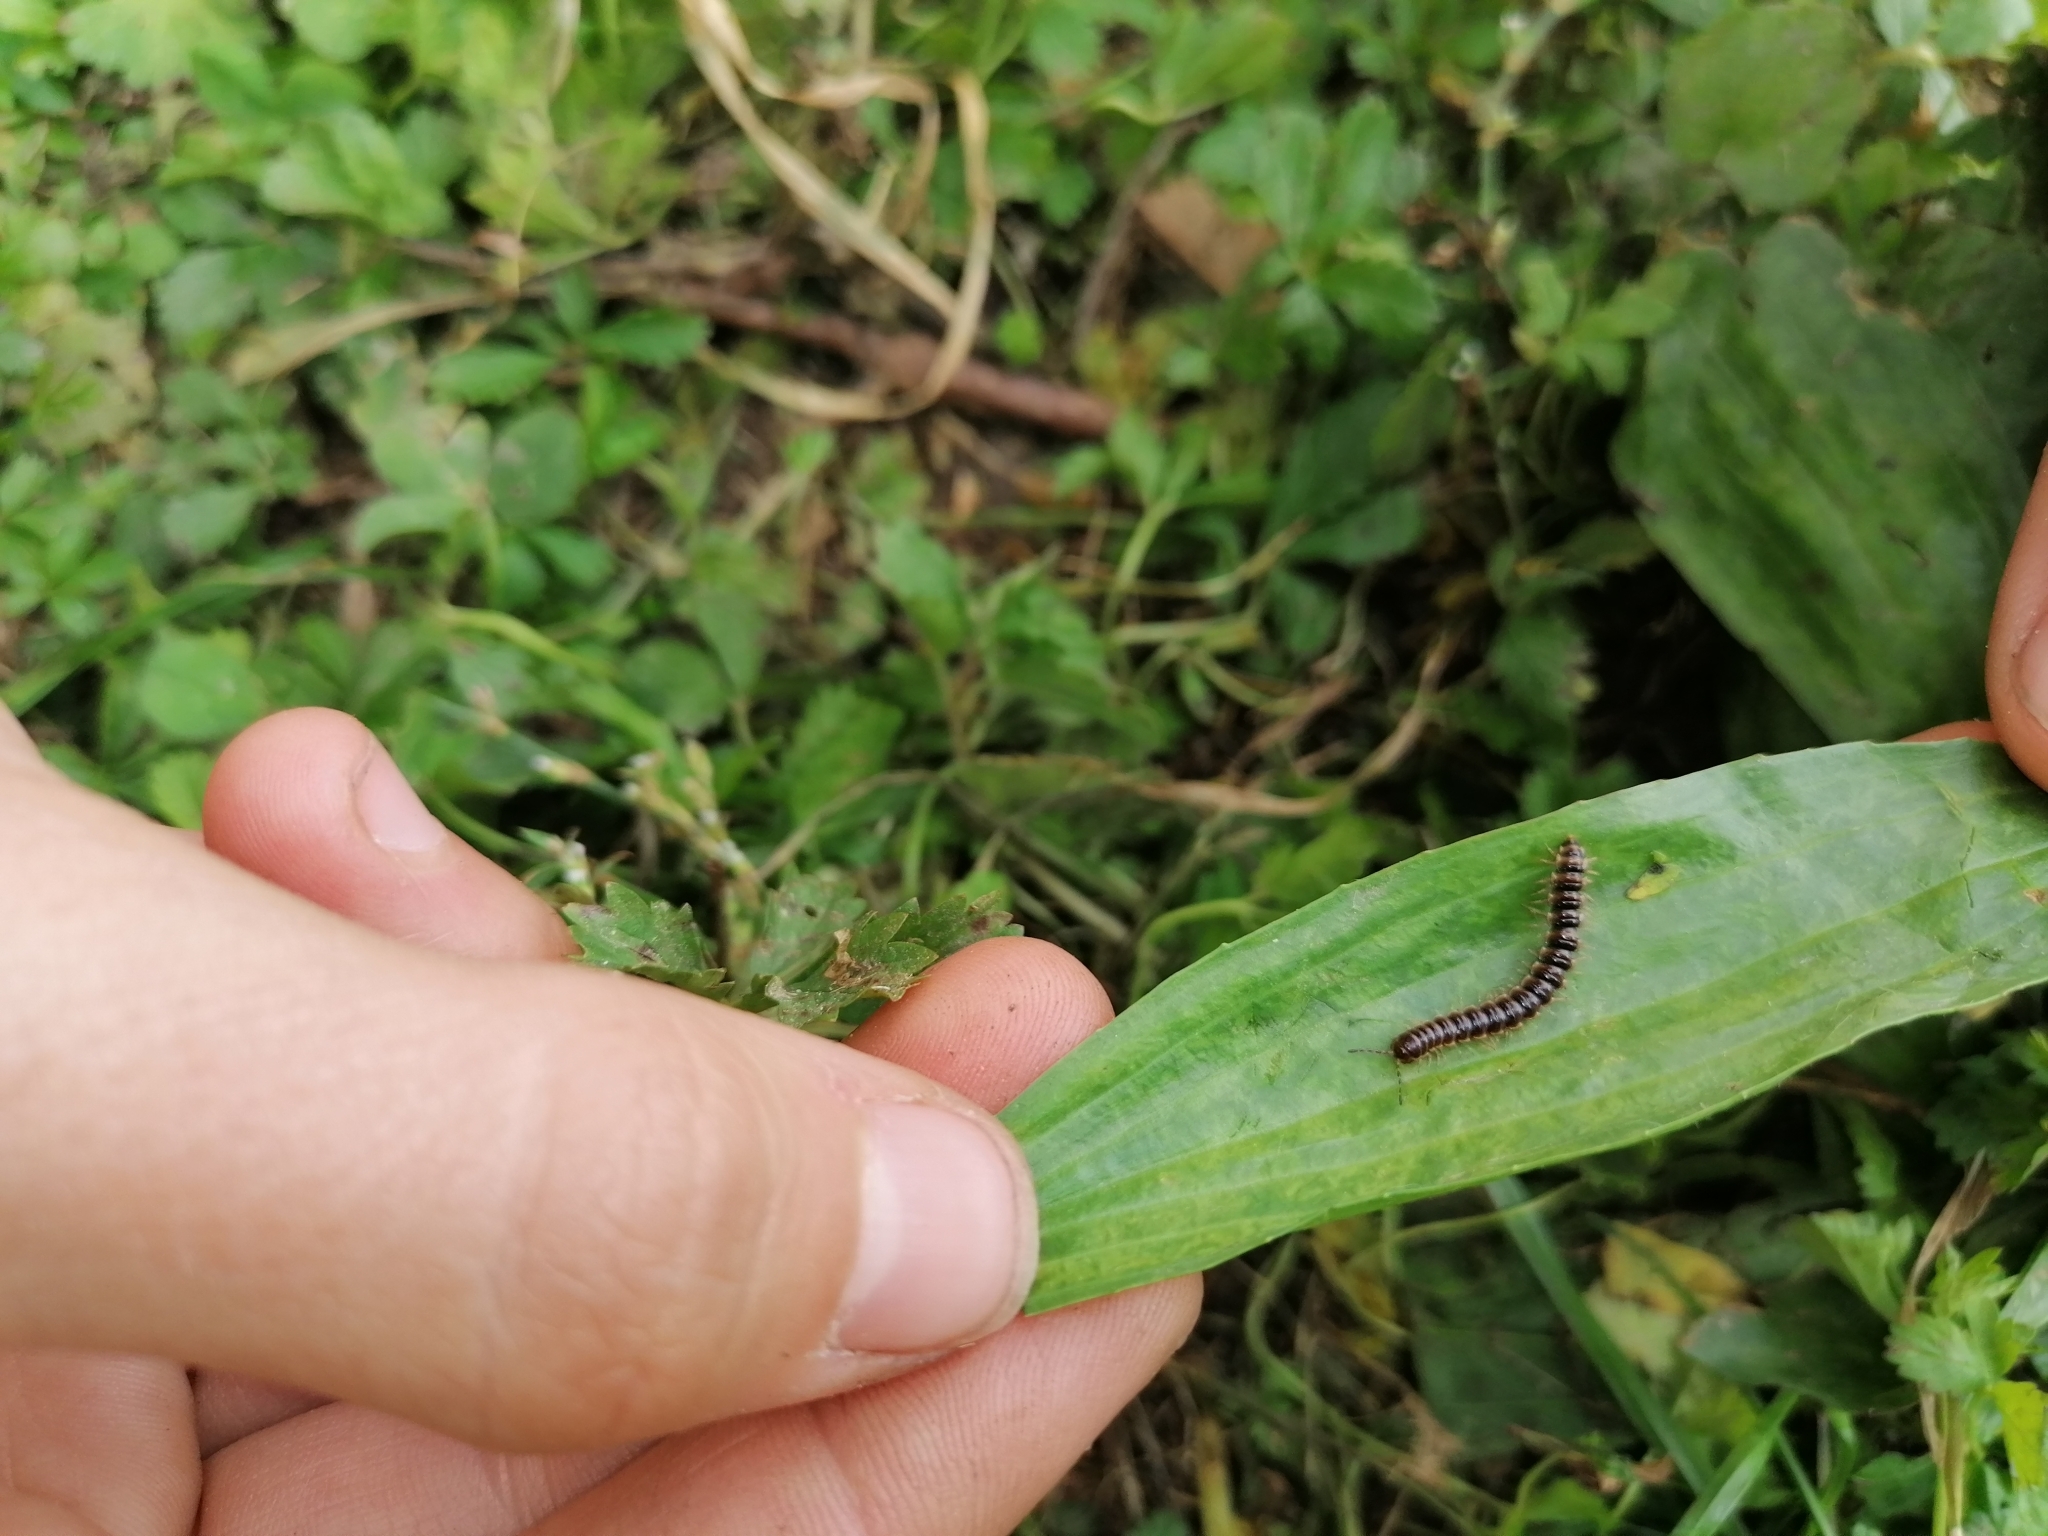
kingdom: Animalia
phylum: Arthropoda
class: Diplopoda
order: Polydesmida
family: Paradoxosomatidae
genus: Oxidus
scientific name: Oxidus gracilis
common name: Greenhouse millipede
